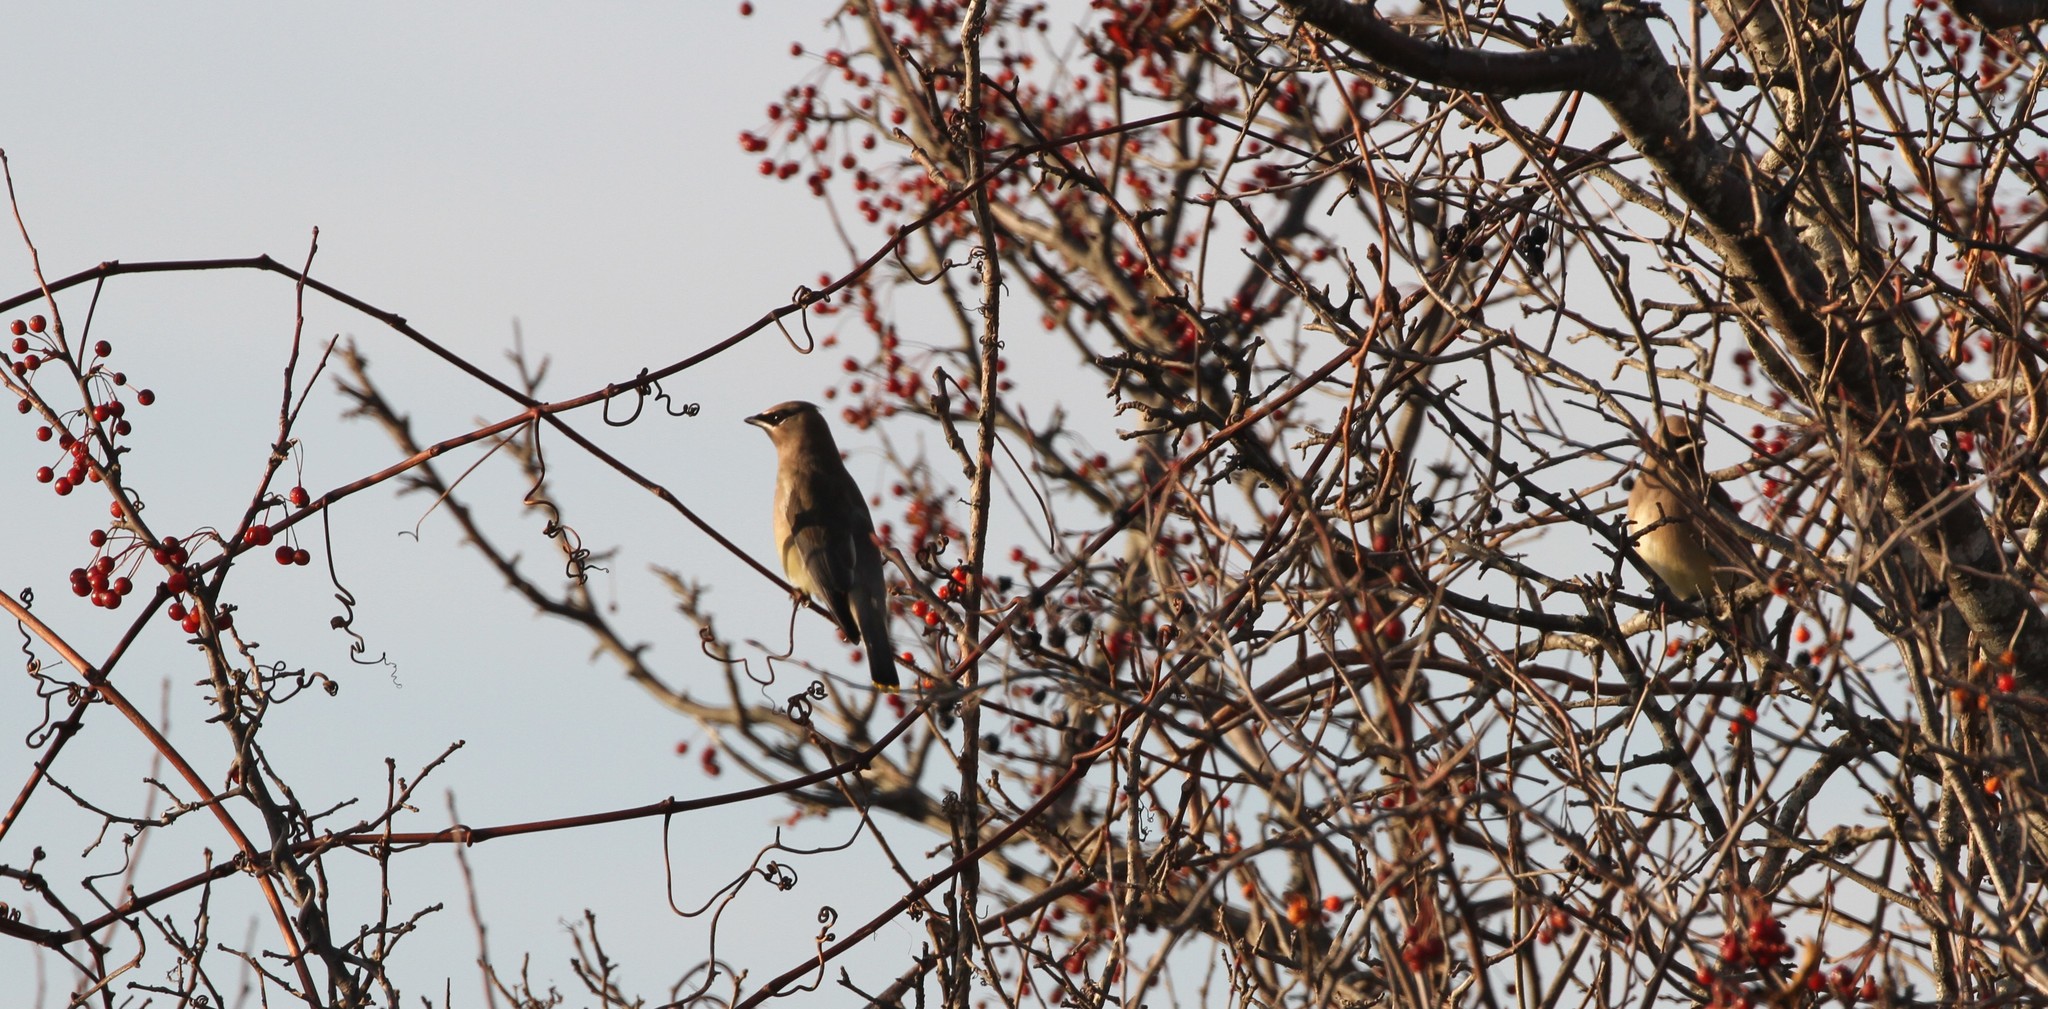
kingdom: Animalia
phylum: Chordata
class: Aves
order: Passeriformes
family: Bombycillidae
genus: Bombycilla
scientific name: Bombycilla cedrorum
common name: Cedar waxwing
